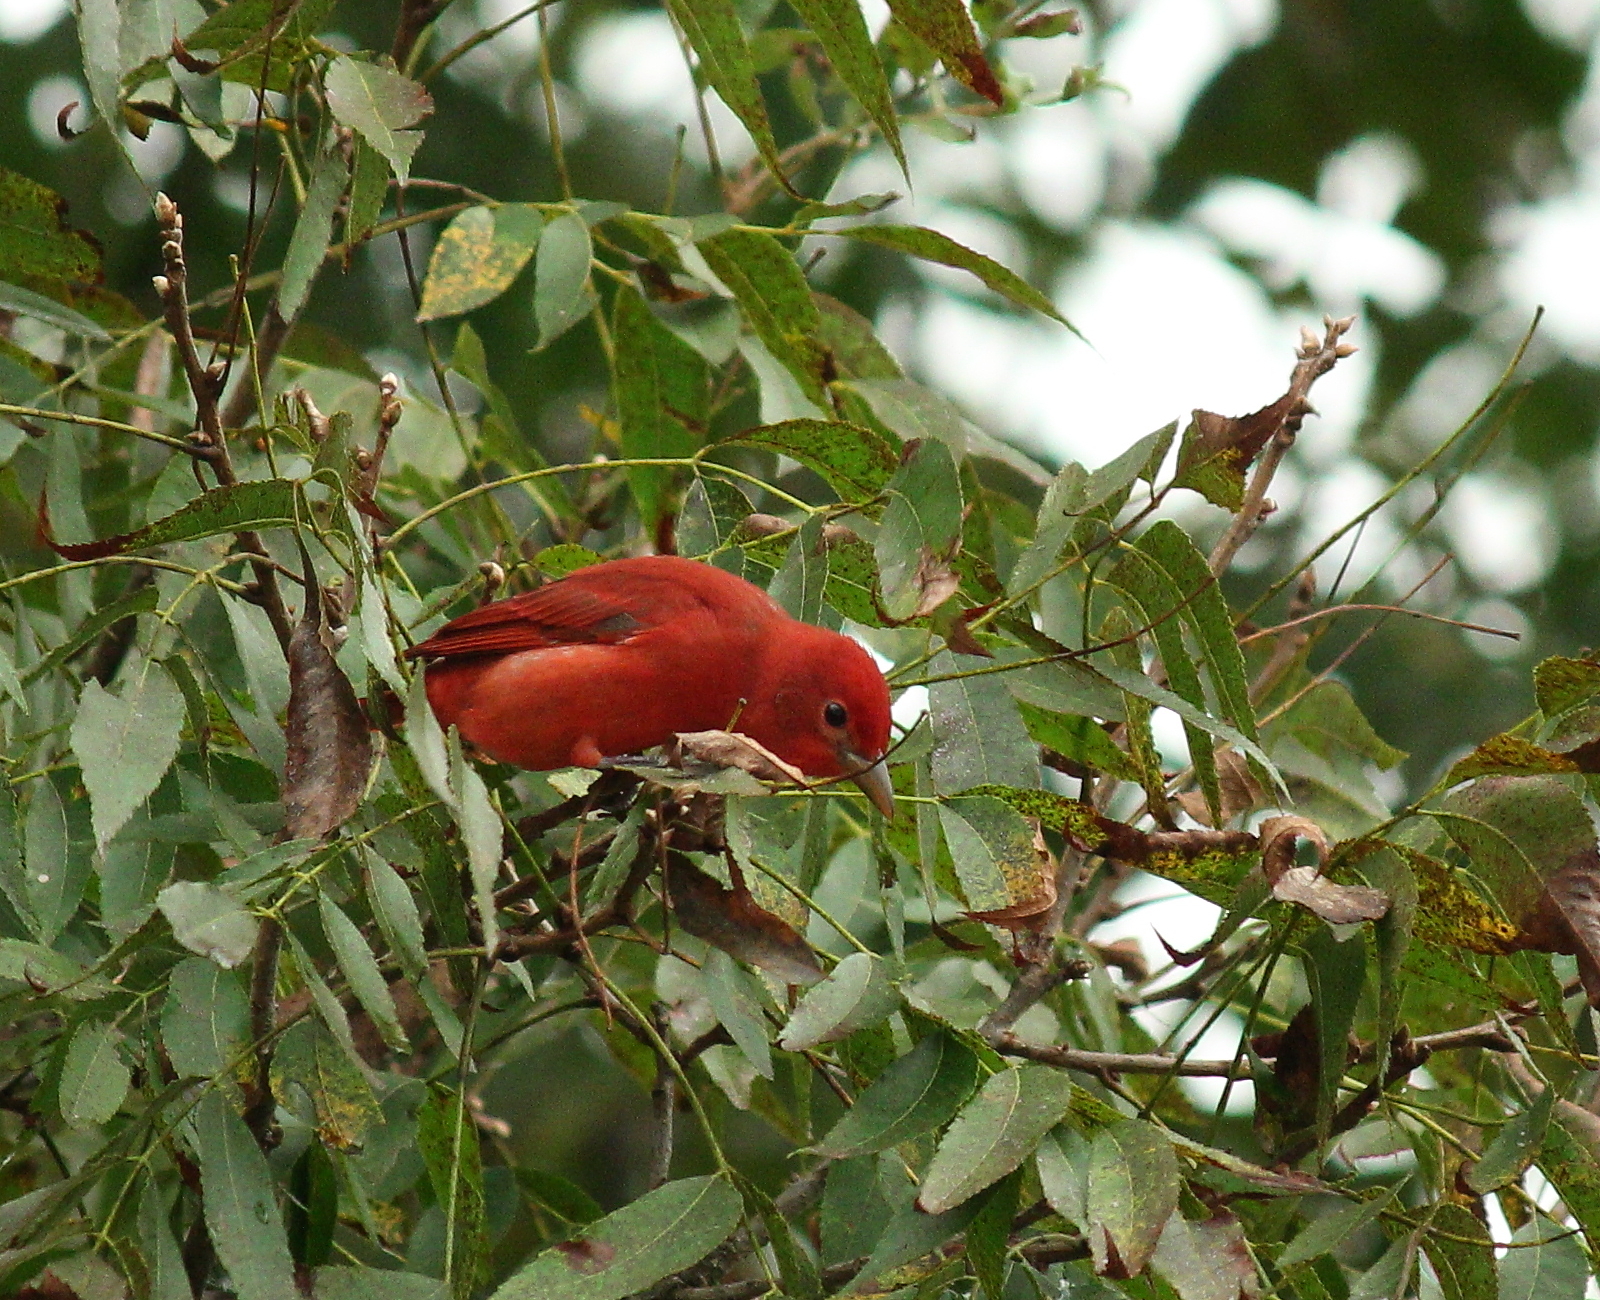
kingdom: Animalia
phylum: Chordata
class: Aves
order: Passeriformes
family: Cardinalidae
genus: Piranga
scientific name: Piranga rubra
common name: Summer tanager
